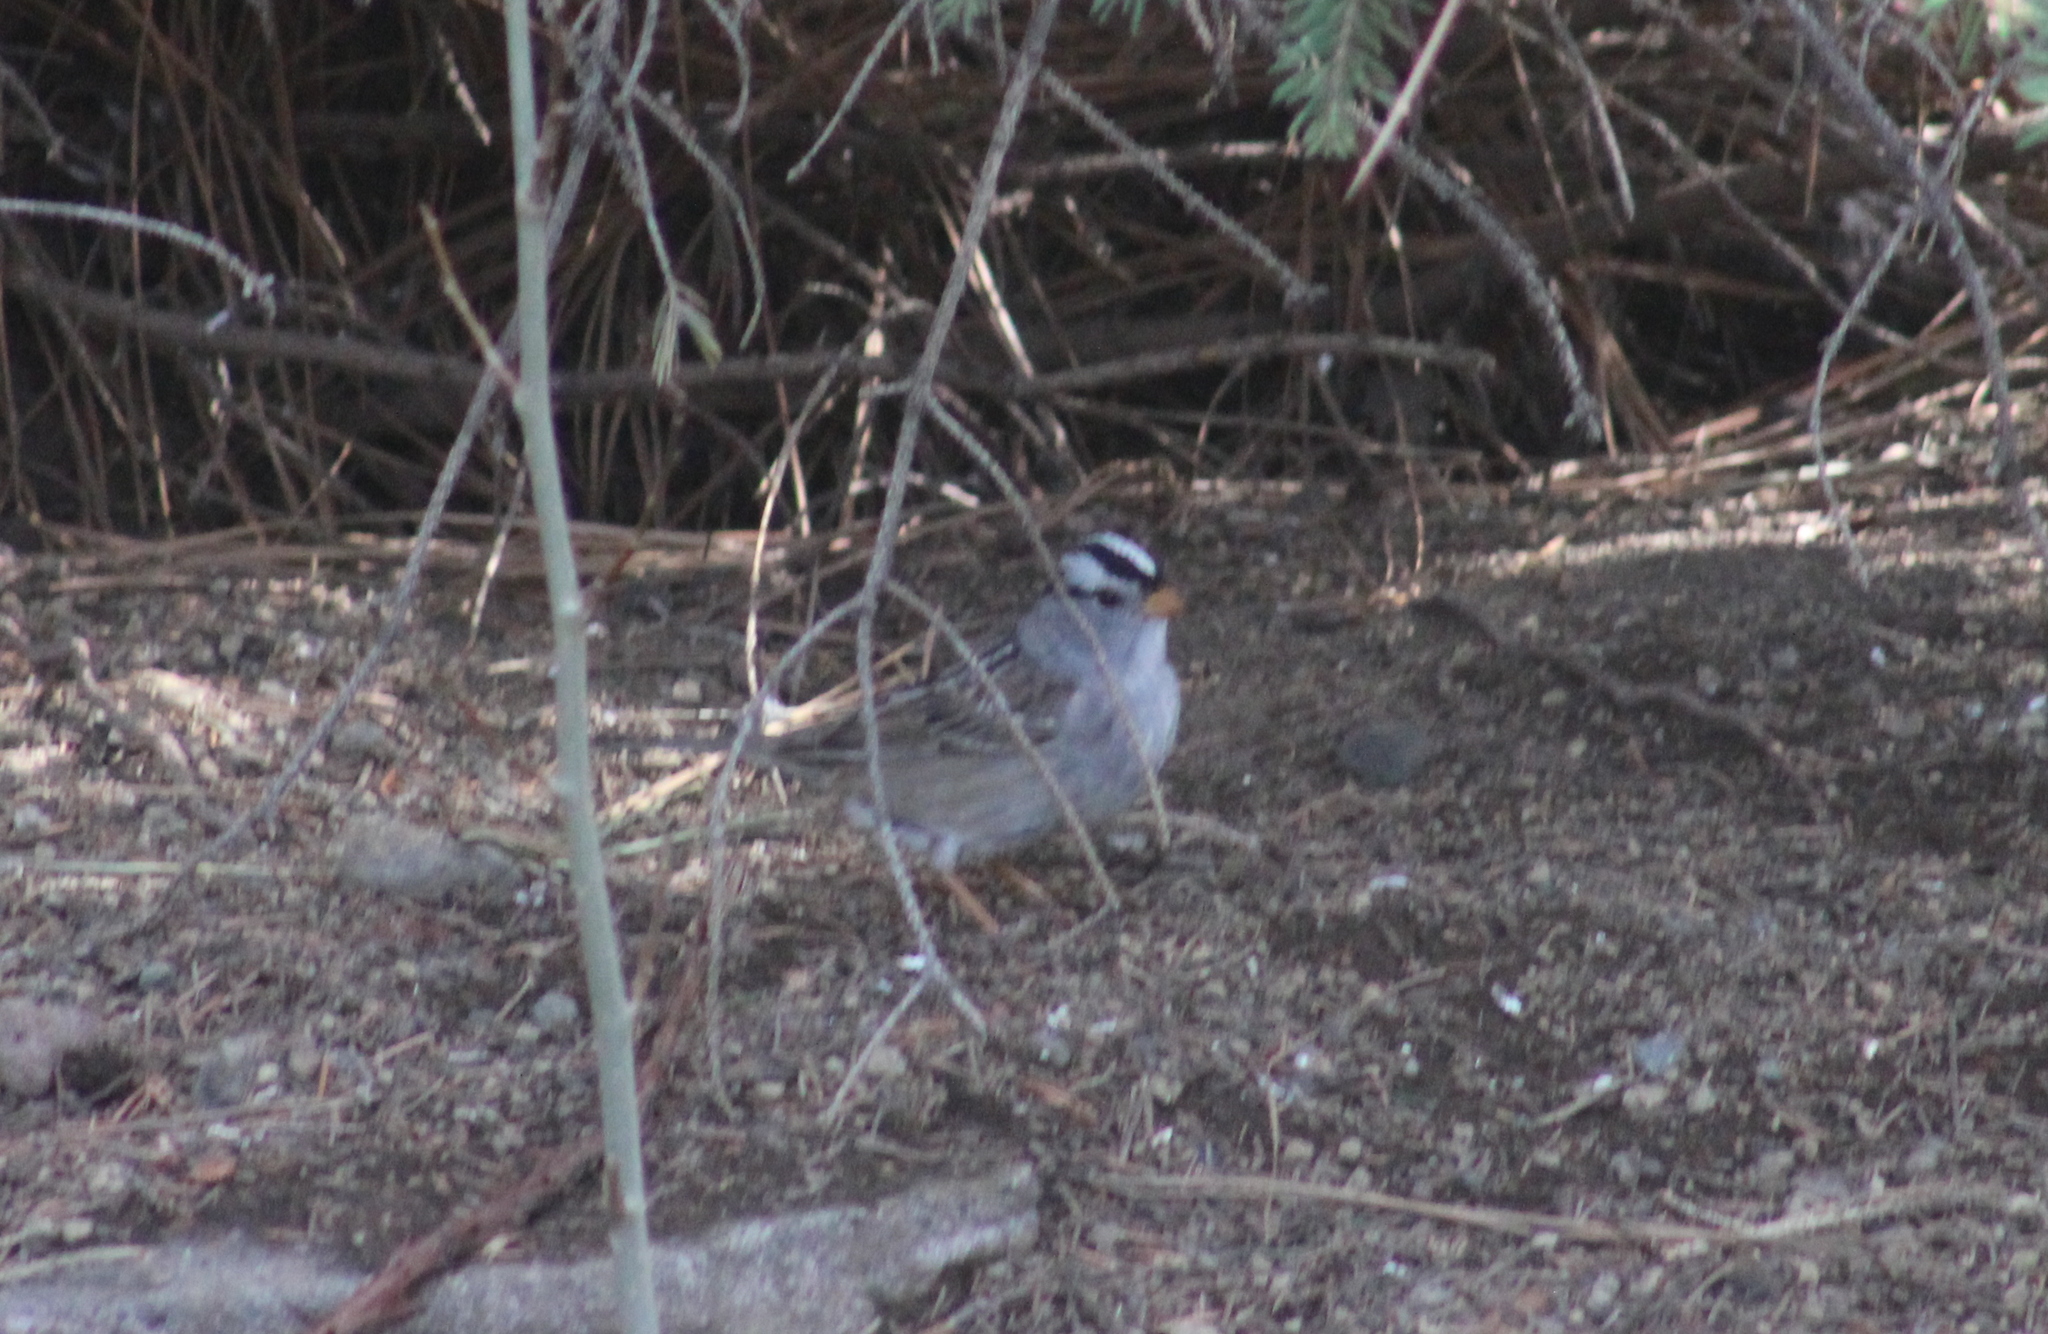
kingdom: Animalia
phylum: Chordata
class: Aves
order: Passeriformes
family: Passerellidae
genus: Zonotrichia
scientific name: Zonotrichia leucophrys
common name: White-crowned sparrow
